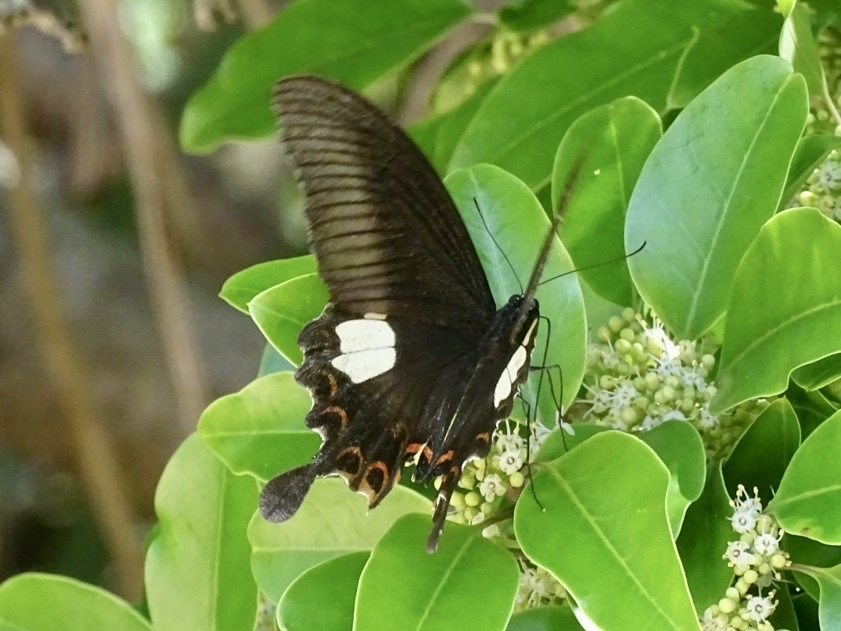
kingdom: Animalia
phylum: Arthropoda
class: Insecta
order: Lepidoptera
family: Papilionidae
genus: Papilio
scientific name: Papilio helenus
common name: Red helen
